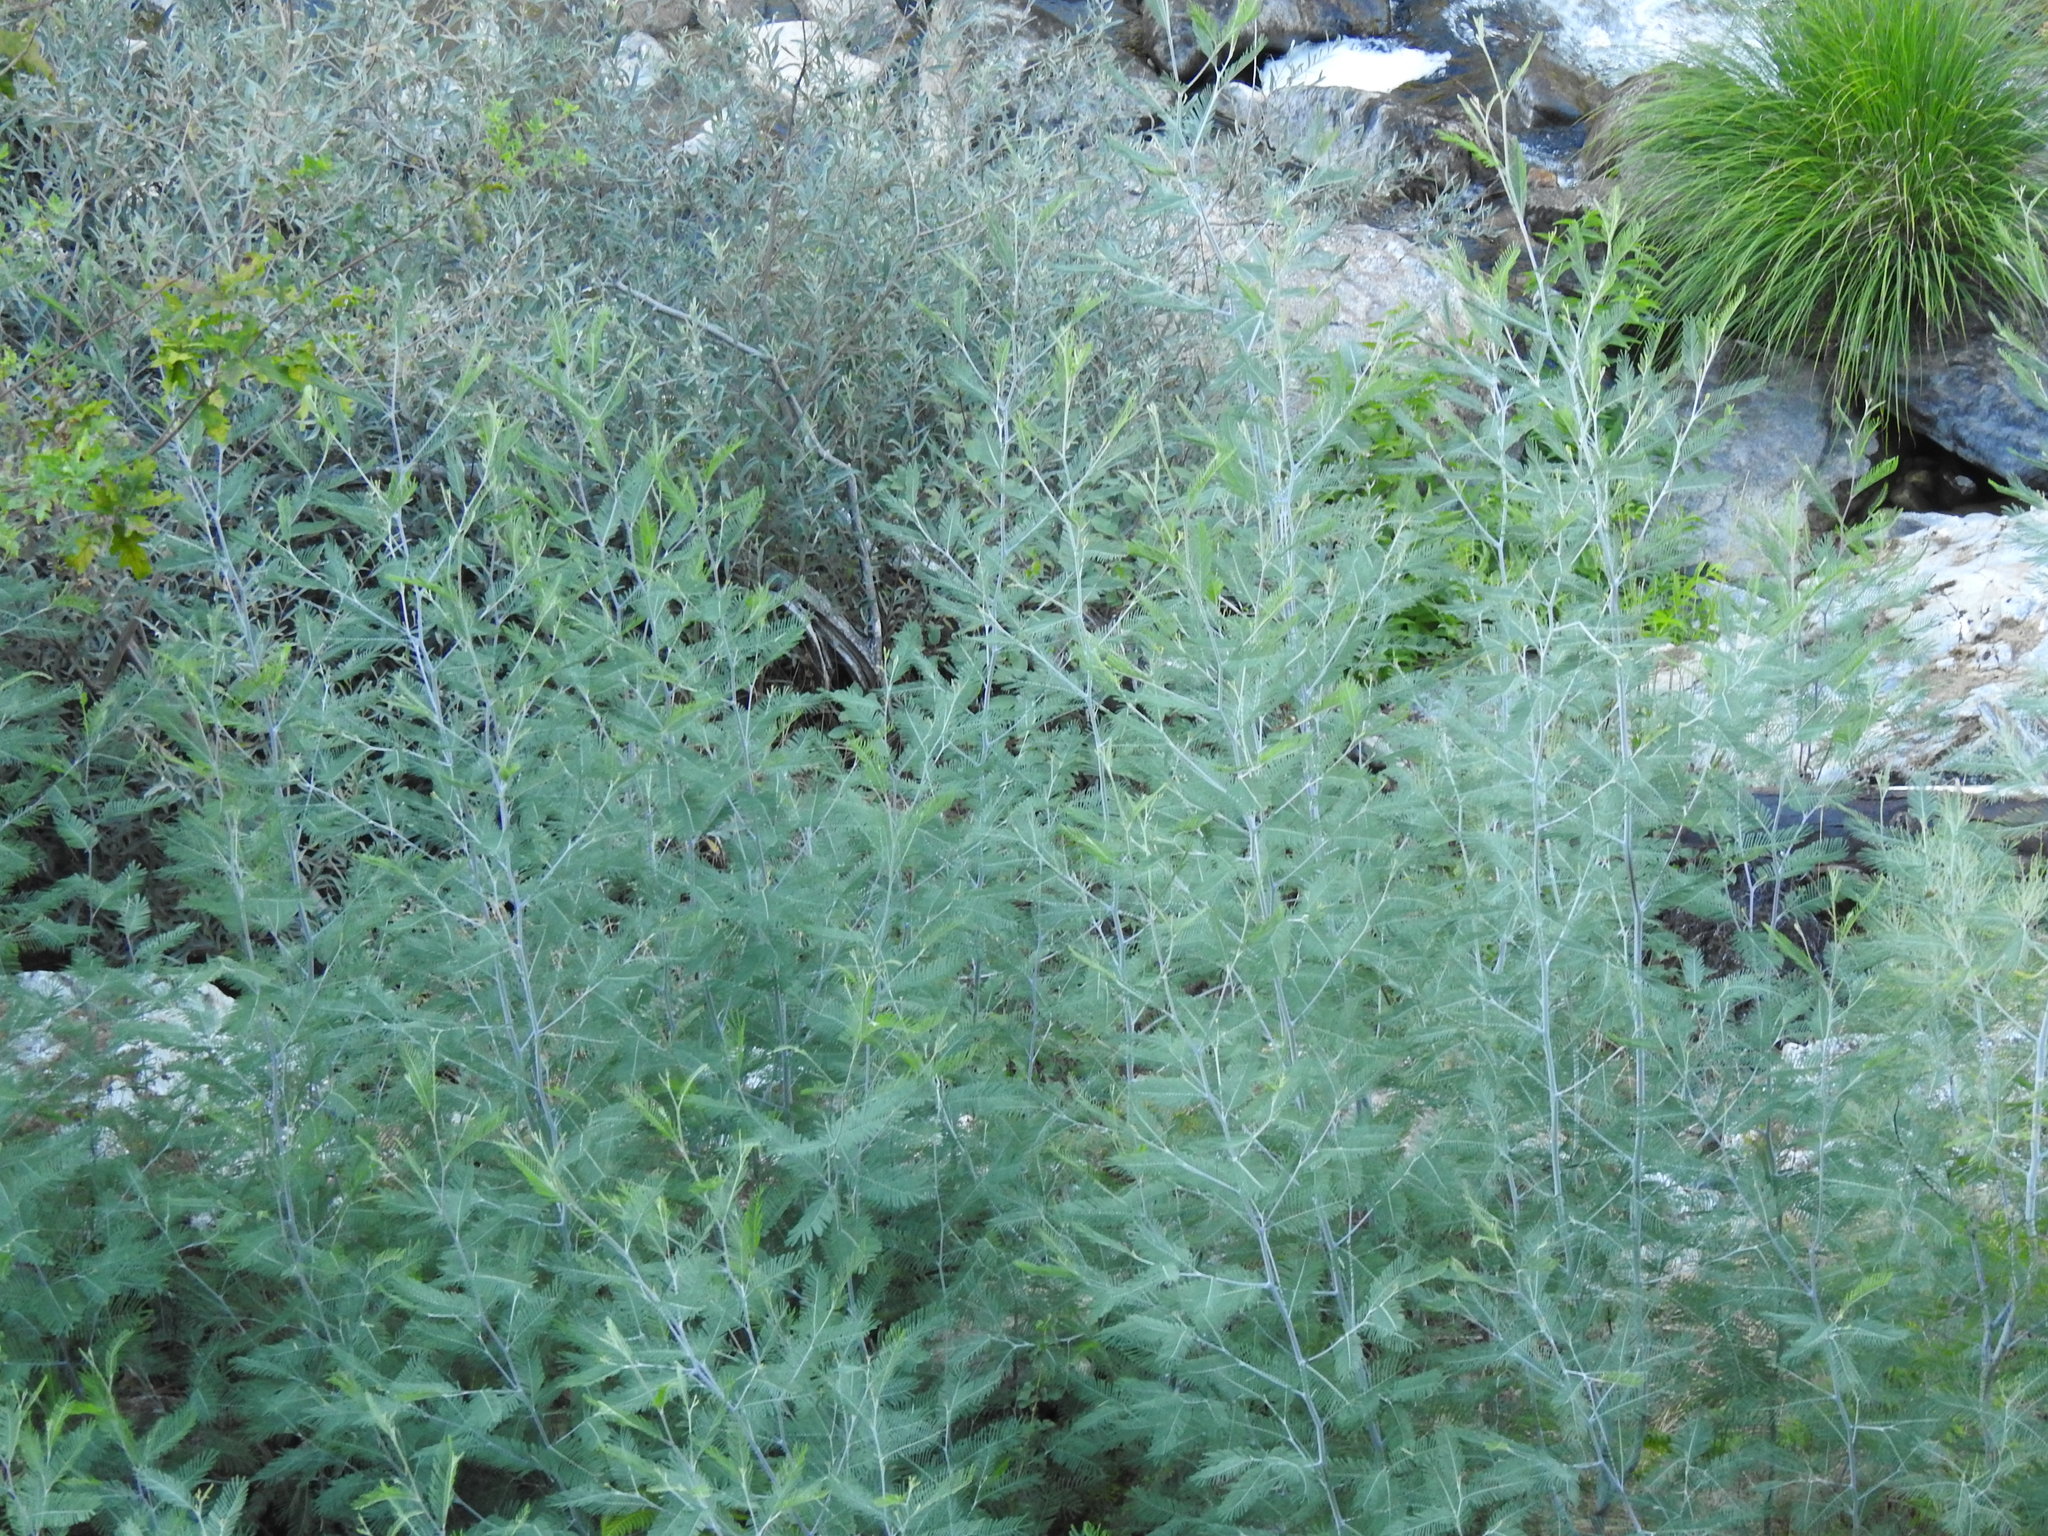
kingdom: Plantae
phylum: Tracheophyta
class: Magnoliopsida
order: Fabales
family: Fabaceae
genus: Acacia
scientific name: Acacia dealbata
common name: Silver wattle
